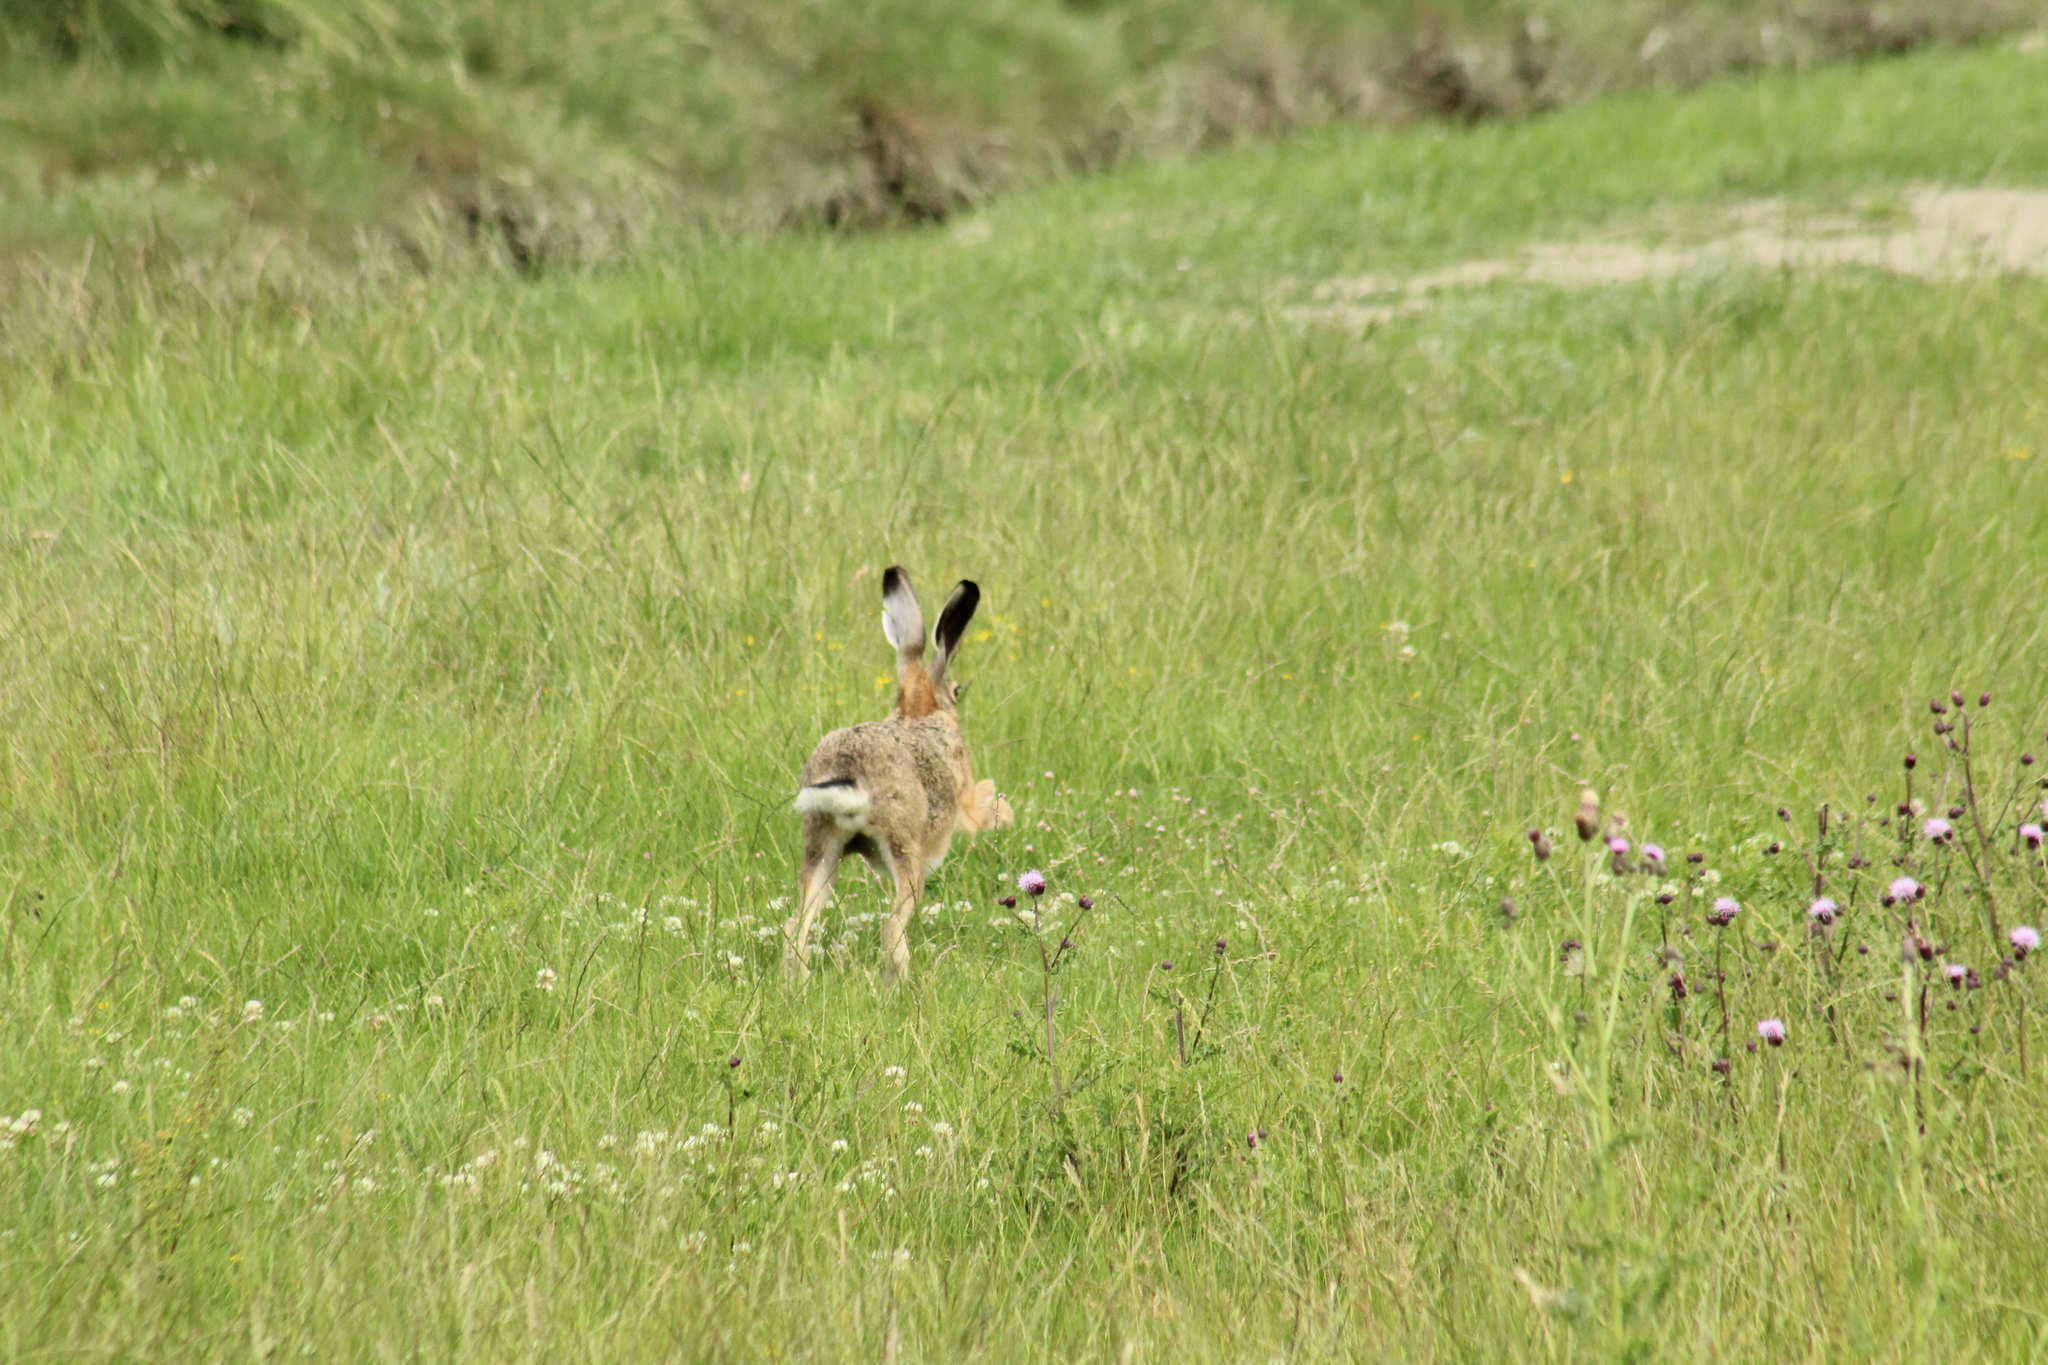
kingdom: Animalia
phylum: Chordata
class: Mammalia
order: Lagomorpha
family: Leporidae
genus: Lepus
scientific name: Lepus europaeus
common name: European hare
